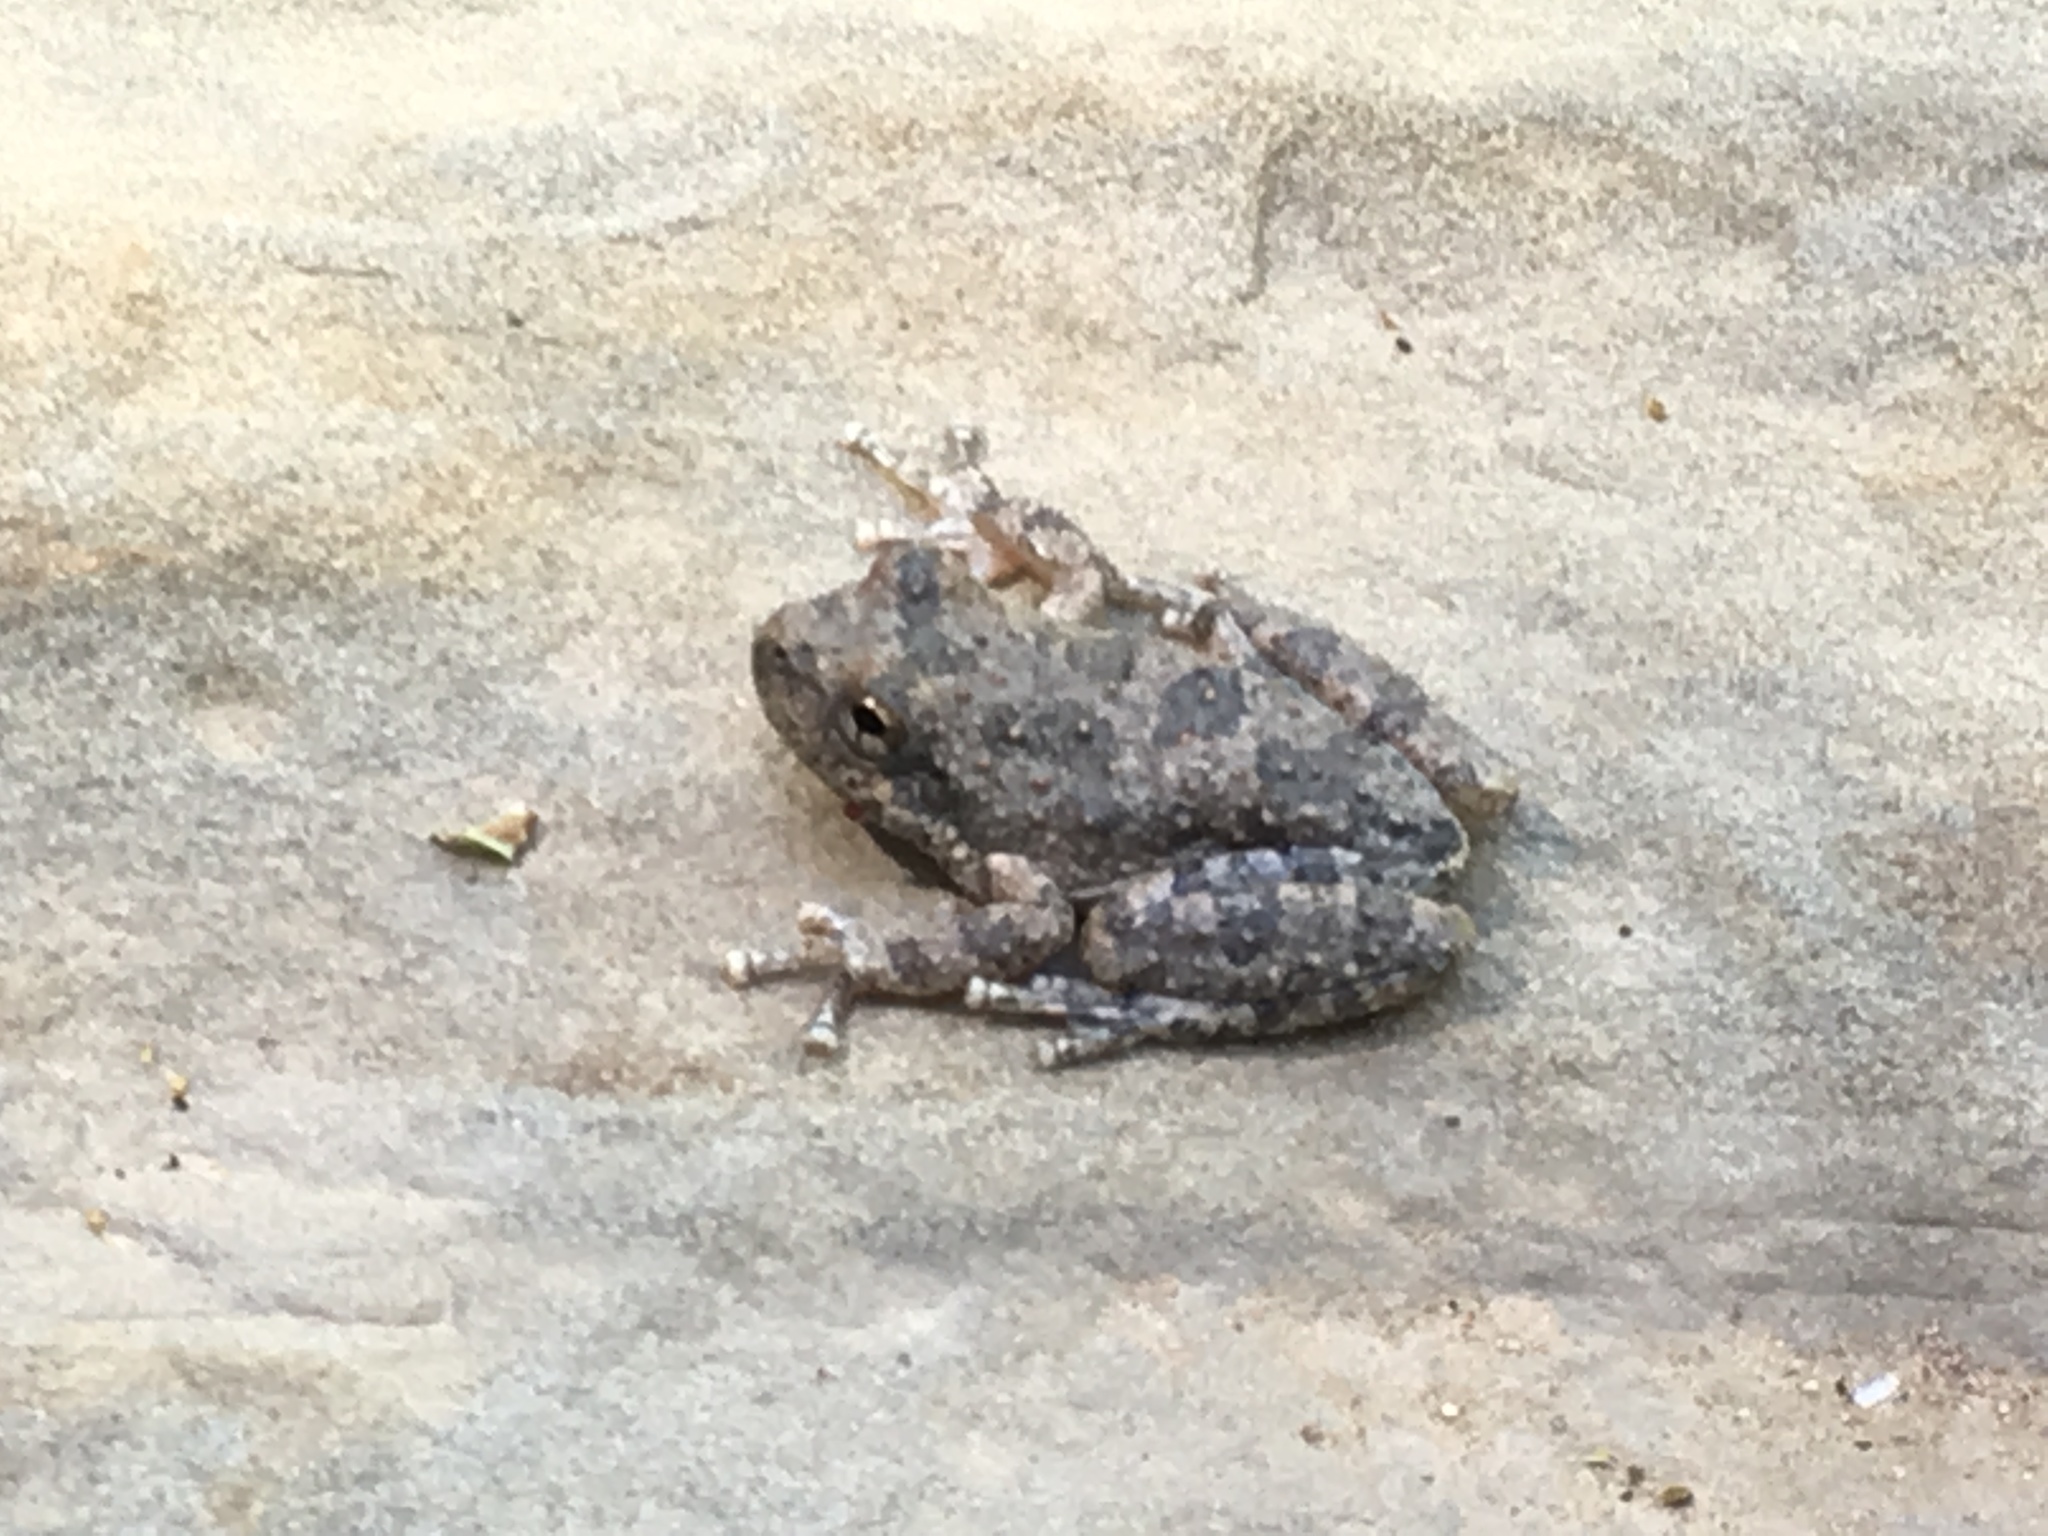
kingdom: Animalia
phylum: Chordata
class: Amphibia
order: Anura
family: Hylidae
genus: Pseudacris
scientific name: Pseudacris cadaverina
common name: California chorus frog
